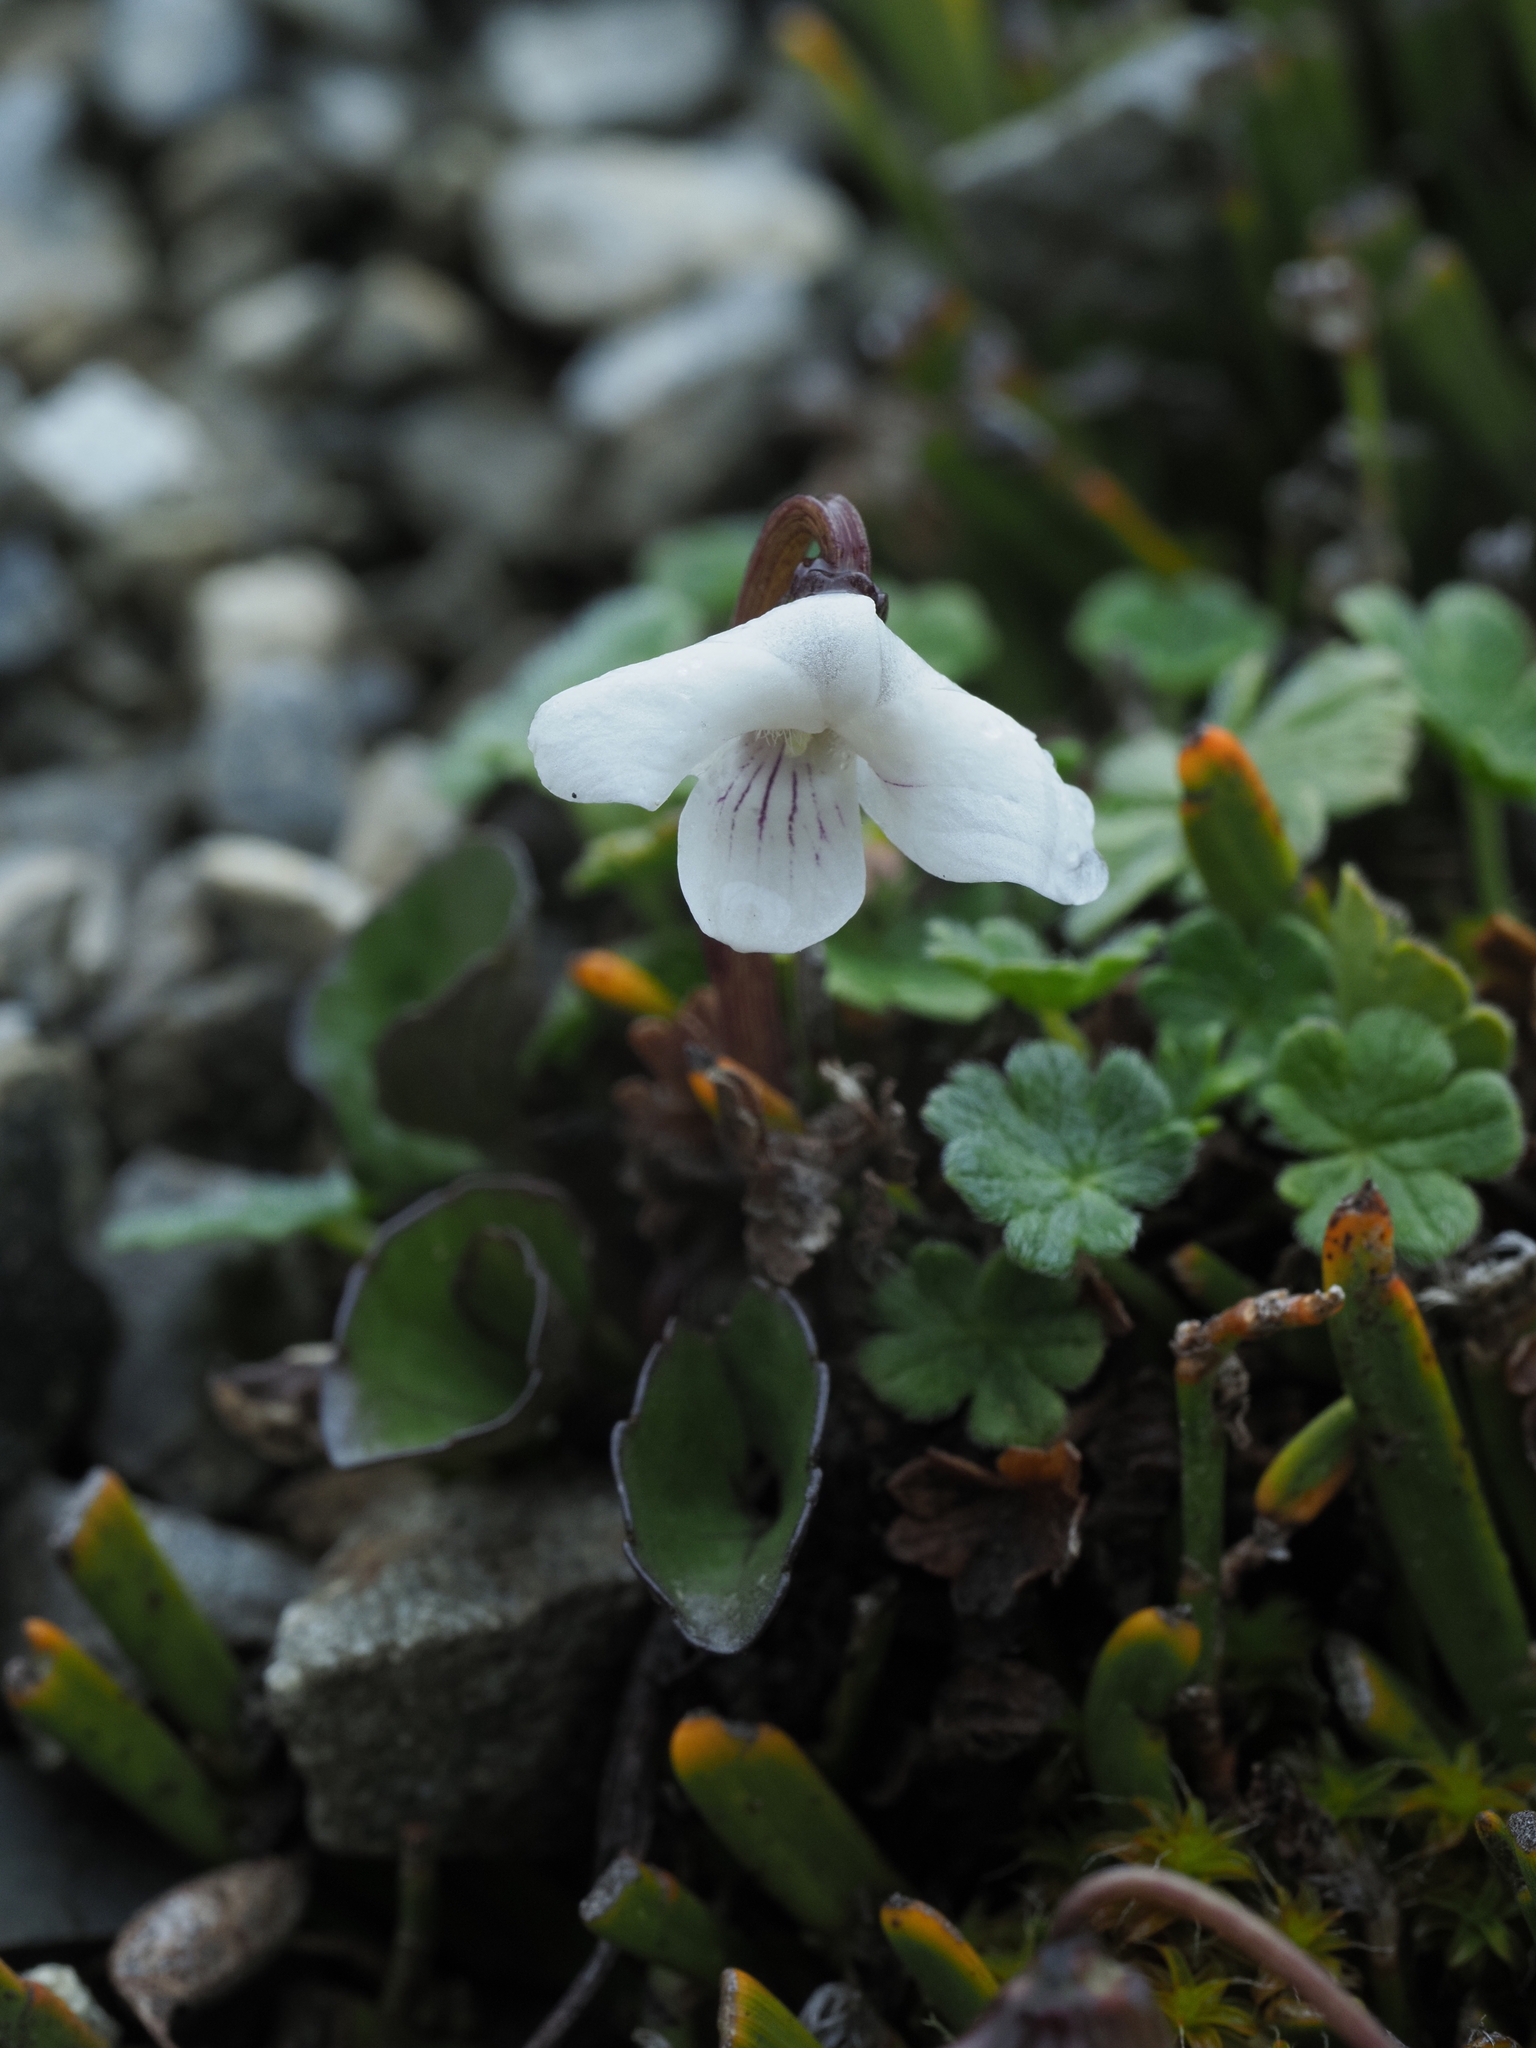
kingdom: Plantae
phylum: Tracheophyta
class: Magnoliopsida
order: Malpighiales
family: Violaceae
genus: Viola
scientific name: Viola cunninghamii
